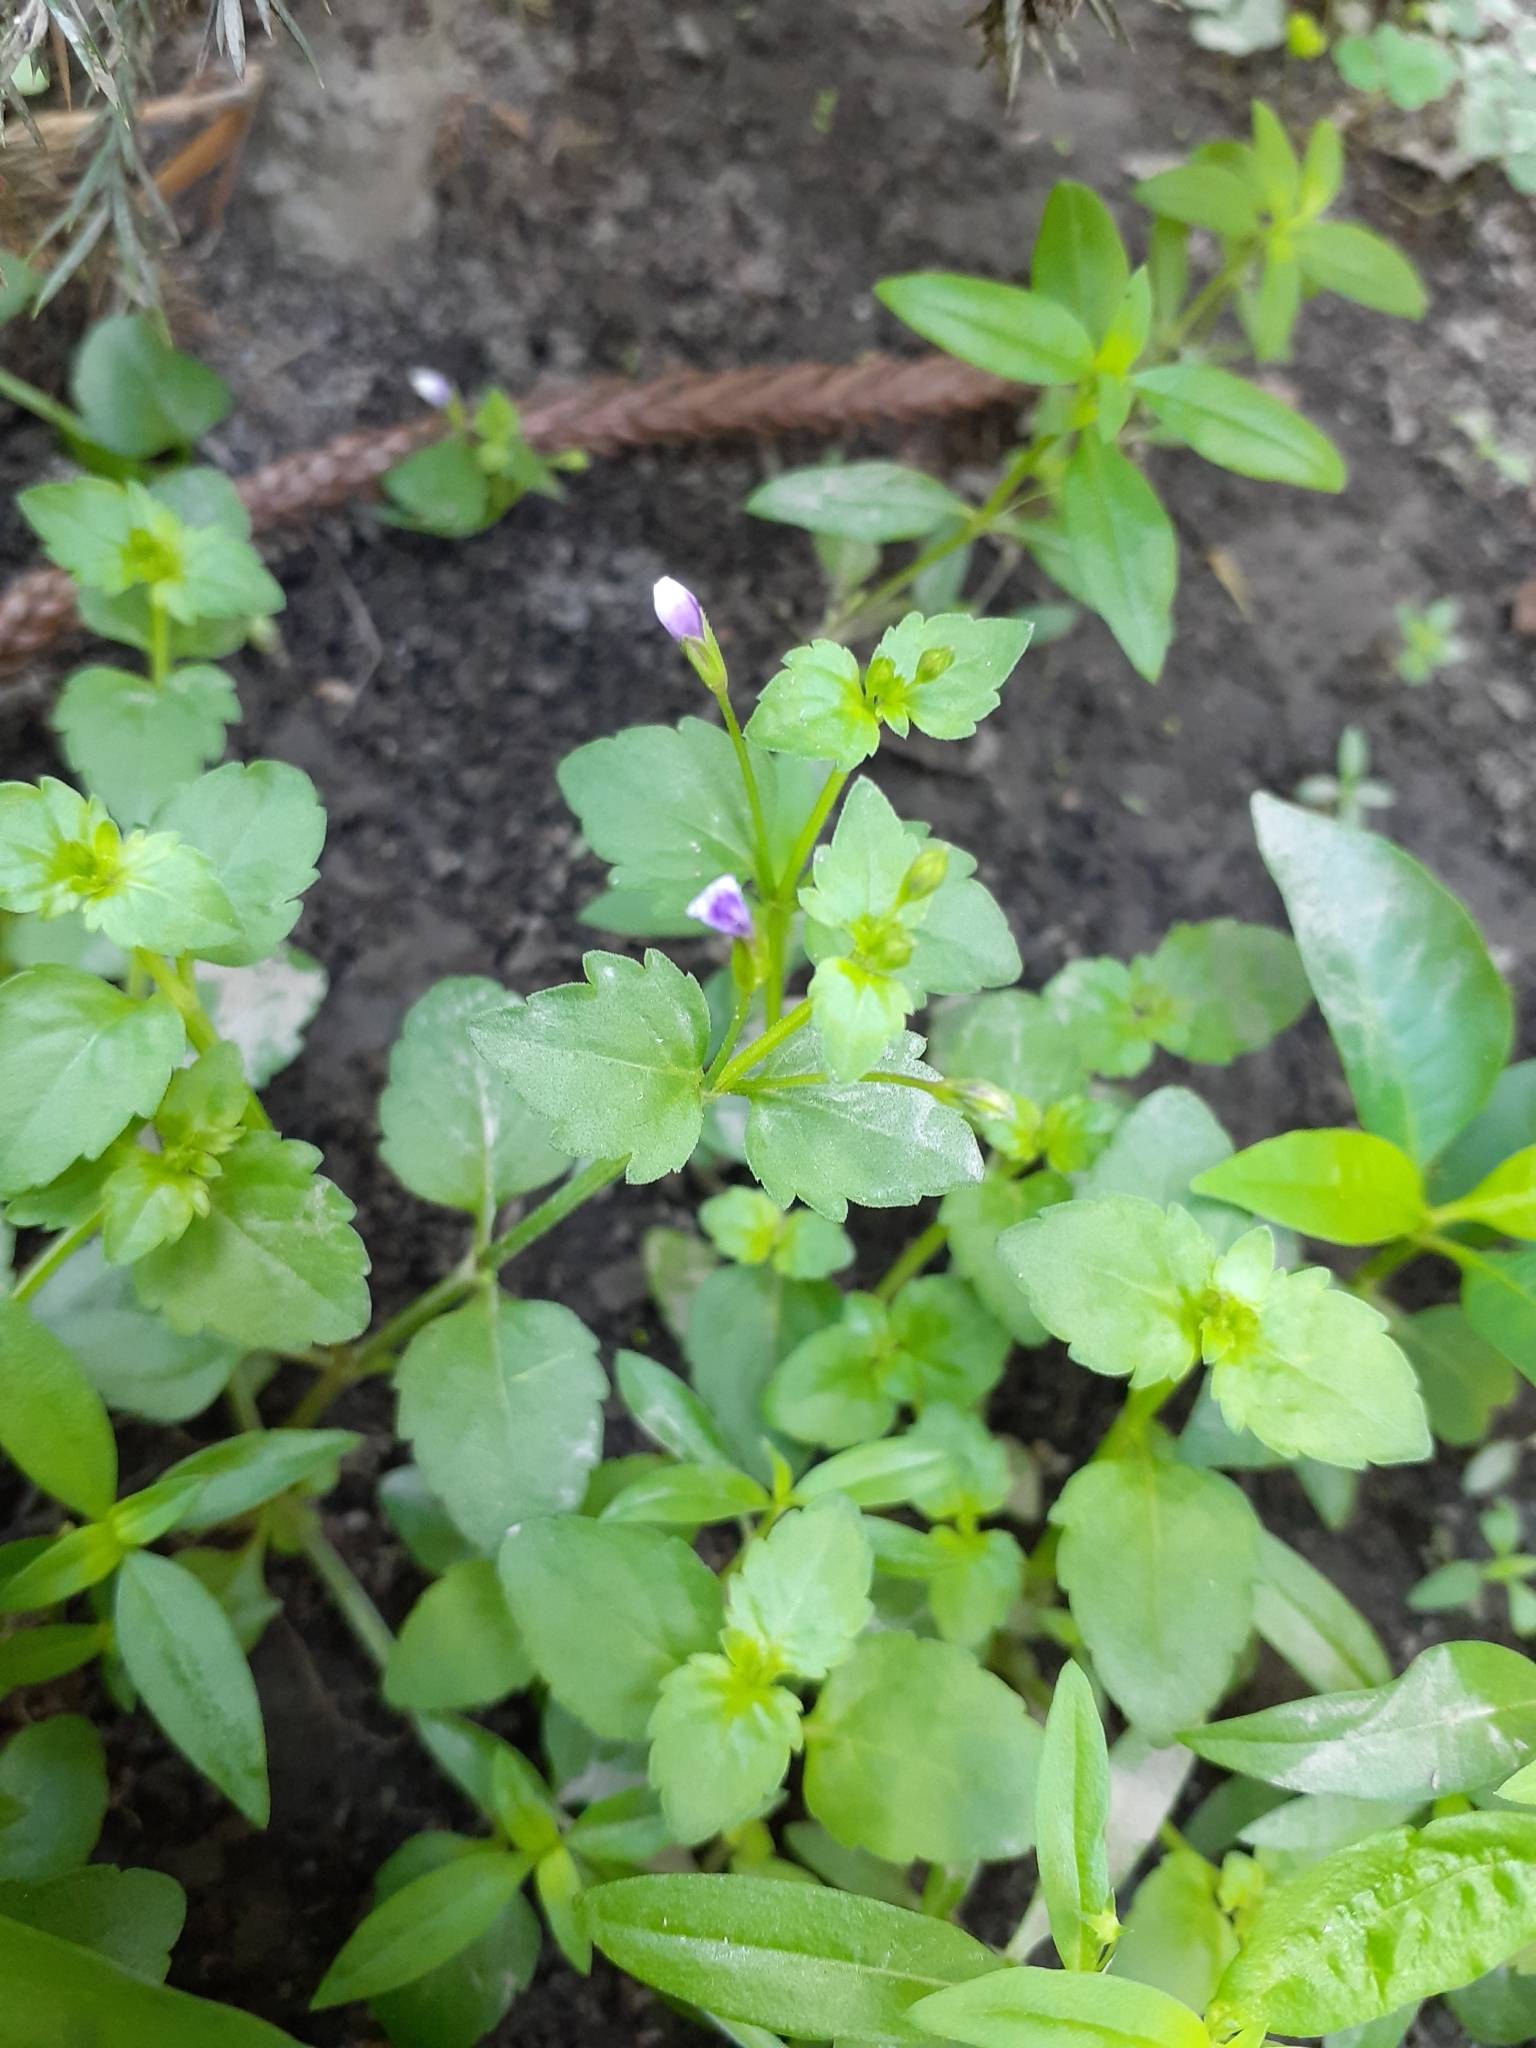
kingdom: Plantae
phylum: Tracheophyta
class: Magnoliopsida
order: Lamiales
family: Linderniaceae
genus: Torenia
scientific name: Torenia crustacea
